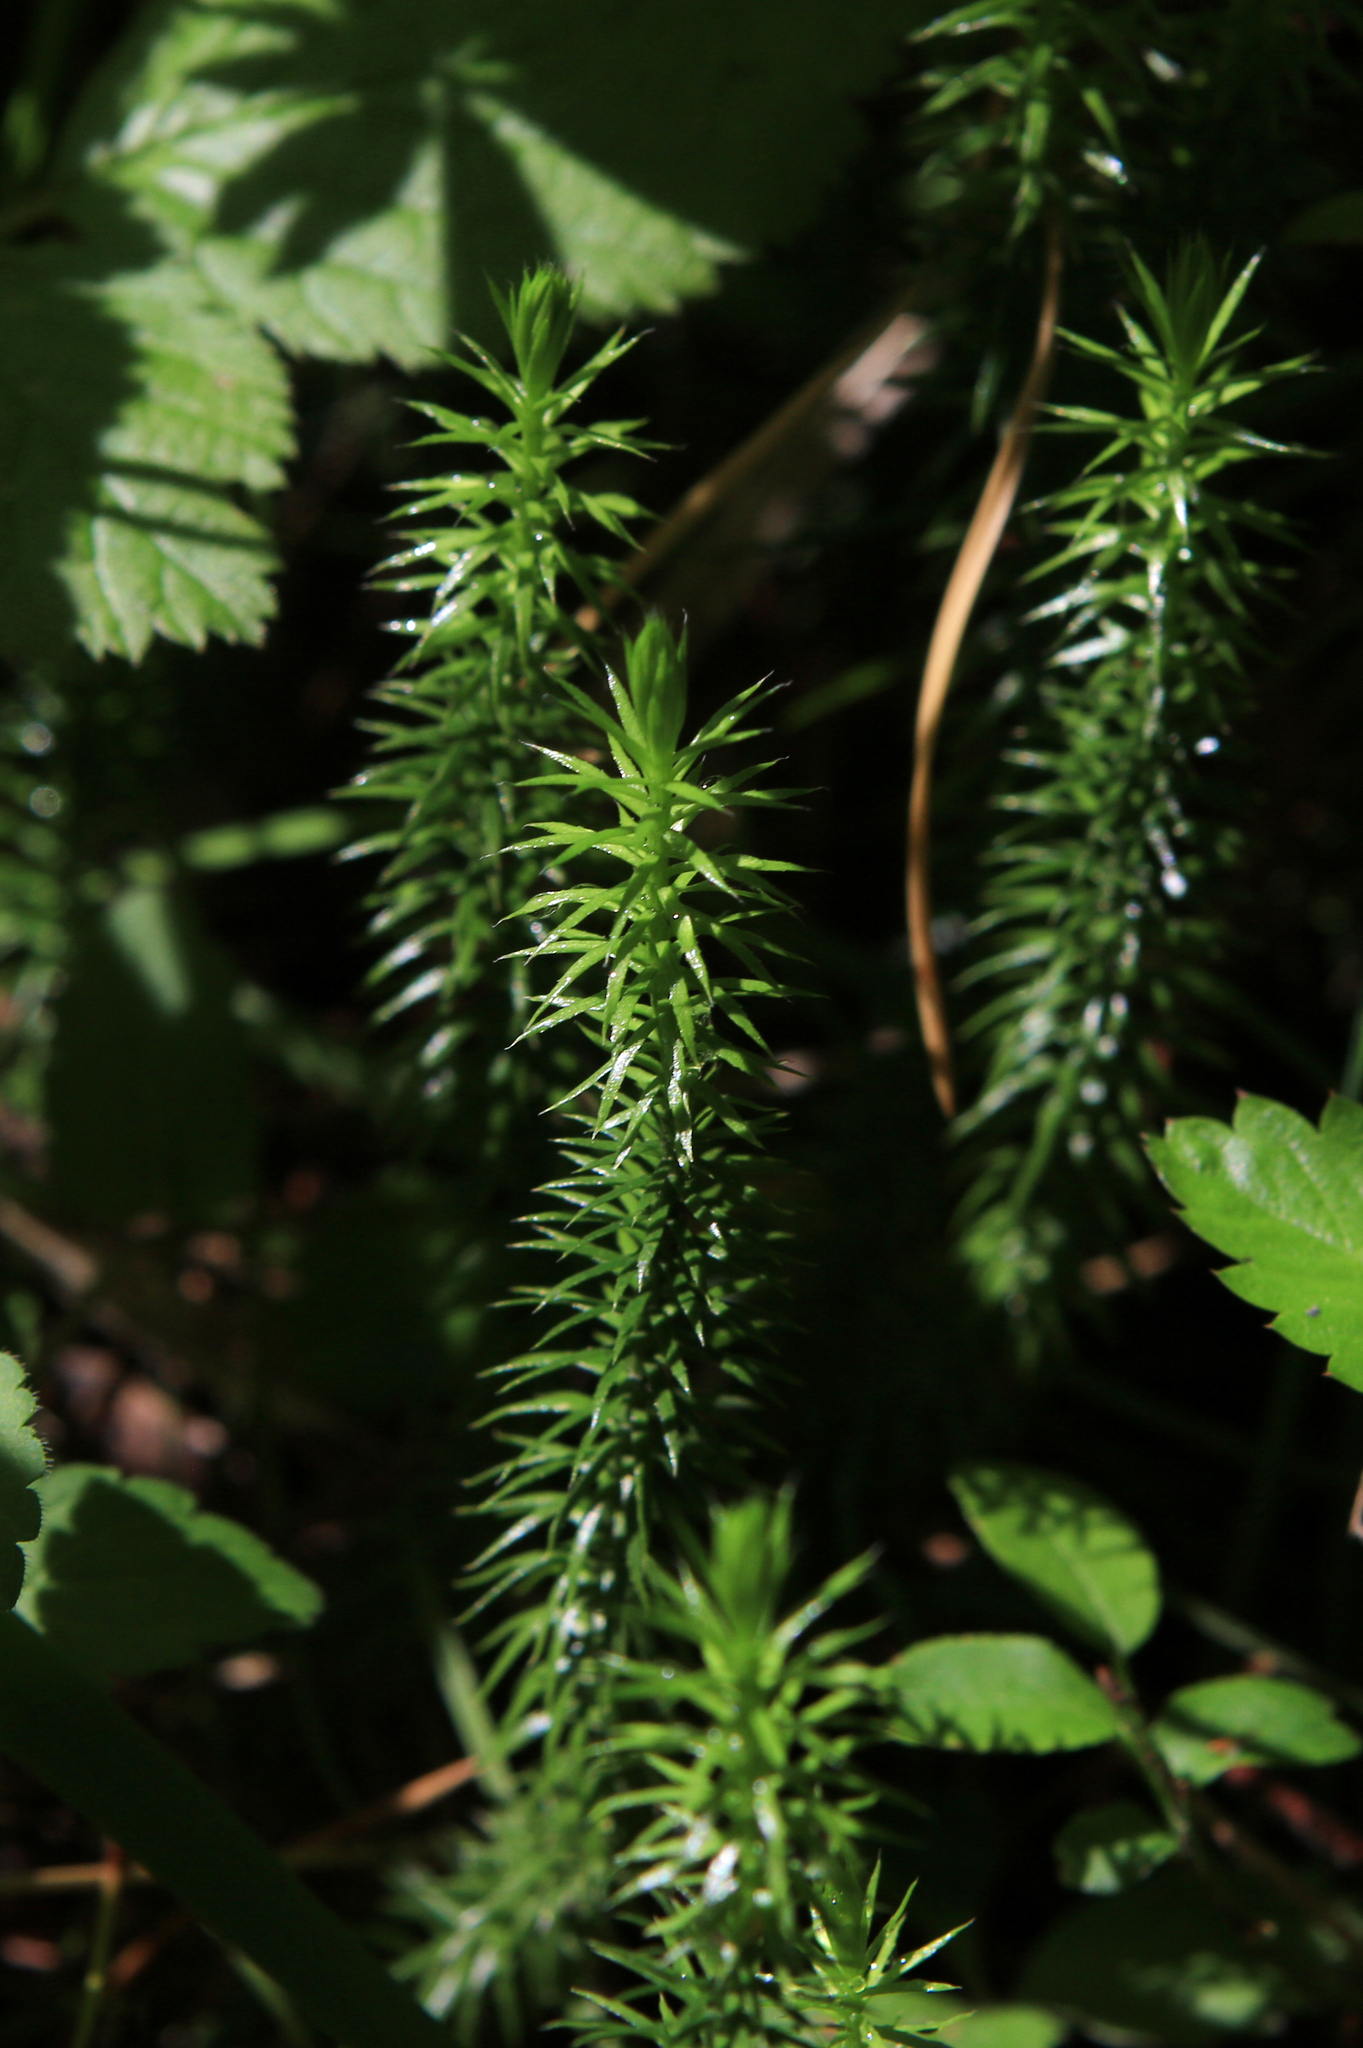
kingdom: Plantae
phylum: Tracheophyta
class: Lycopodiopsida
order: Lycopodiales
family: Lycopodiaceae
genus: Spinulum
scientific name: Spinulum annotinum
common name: Interrupted club-moss
